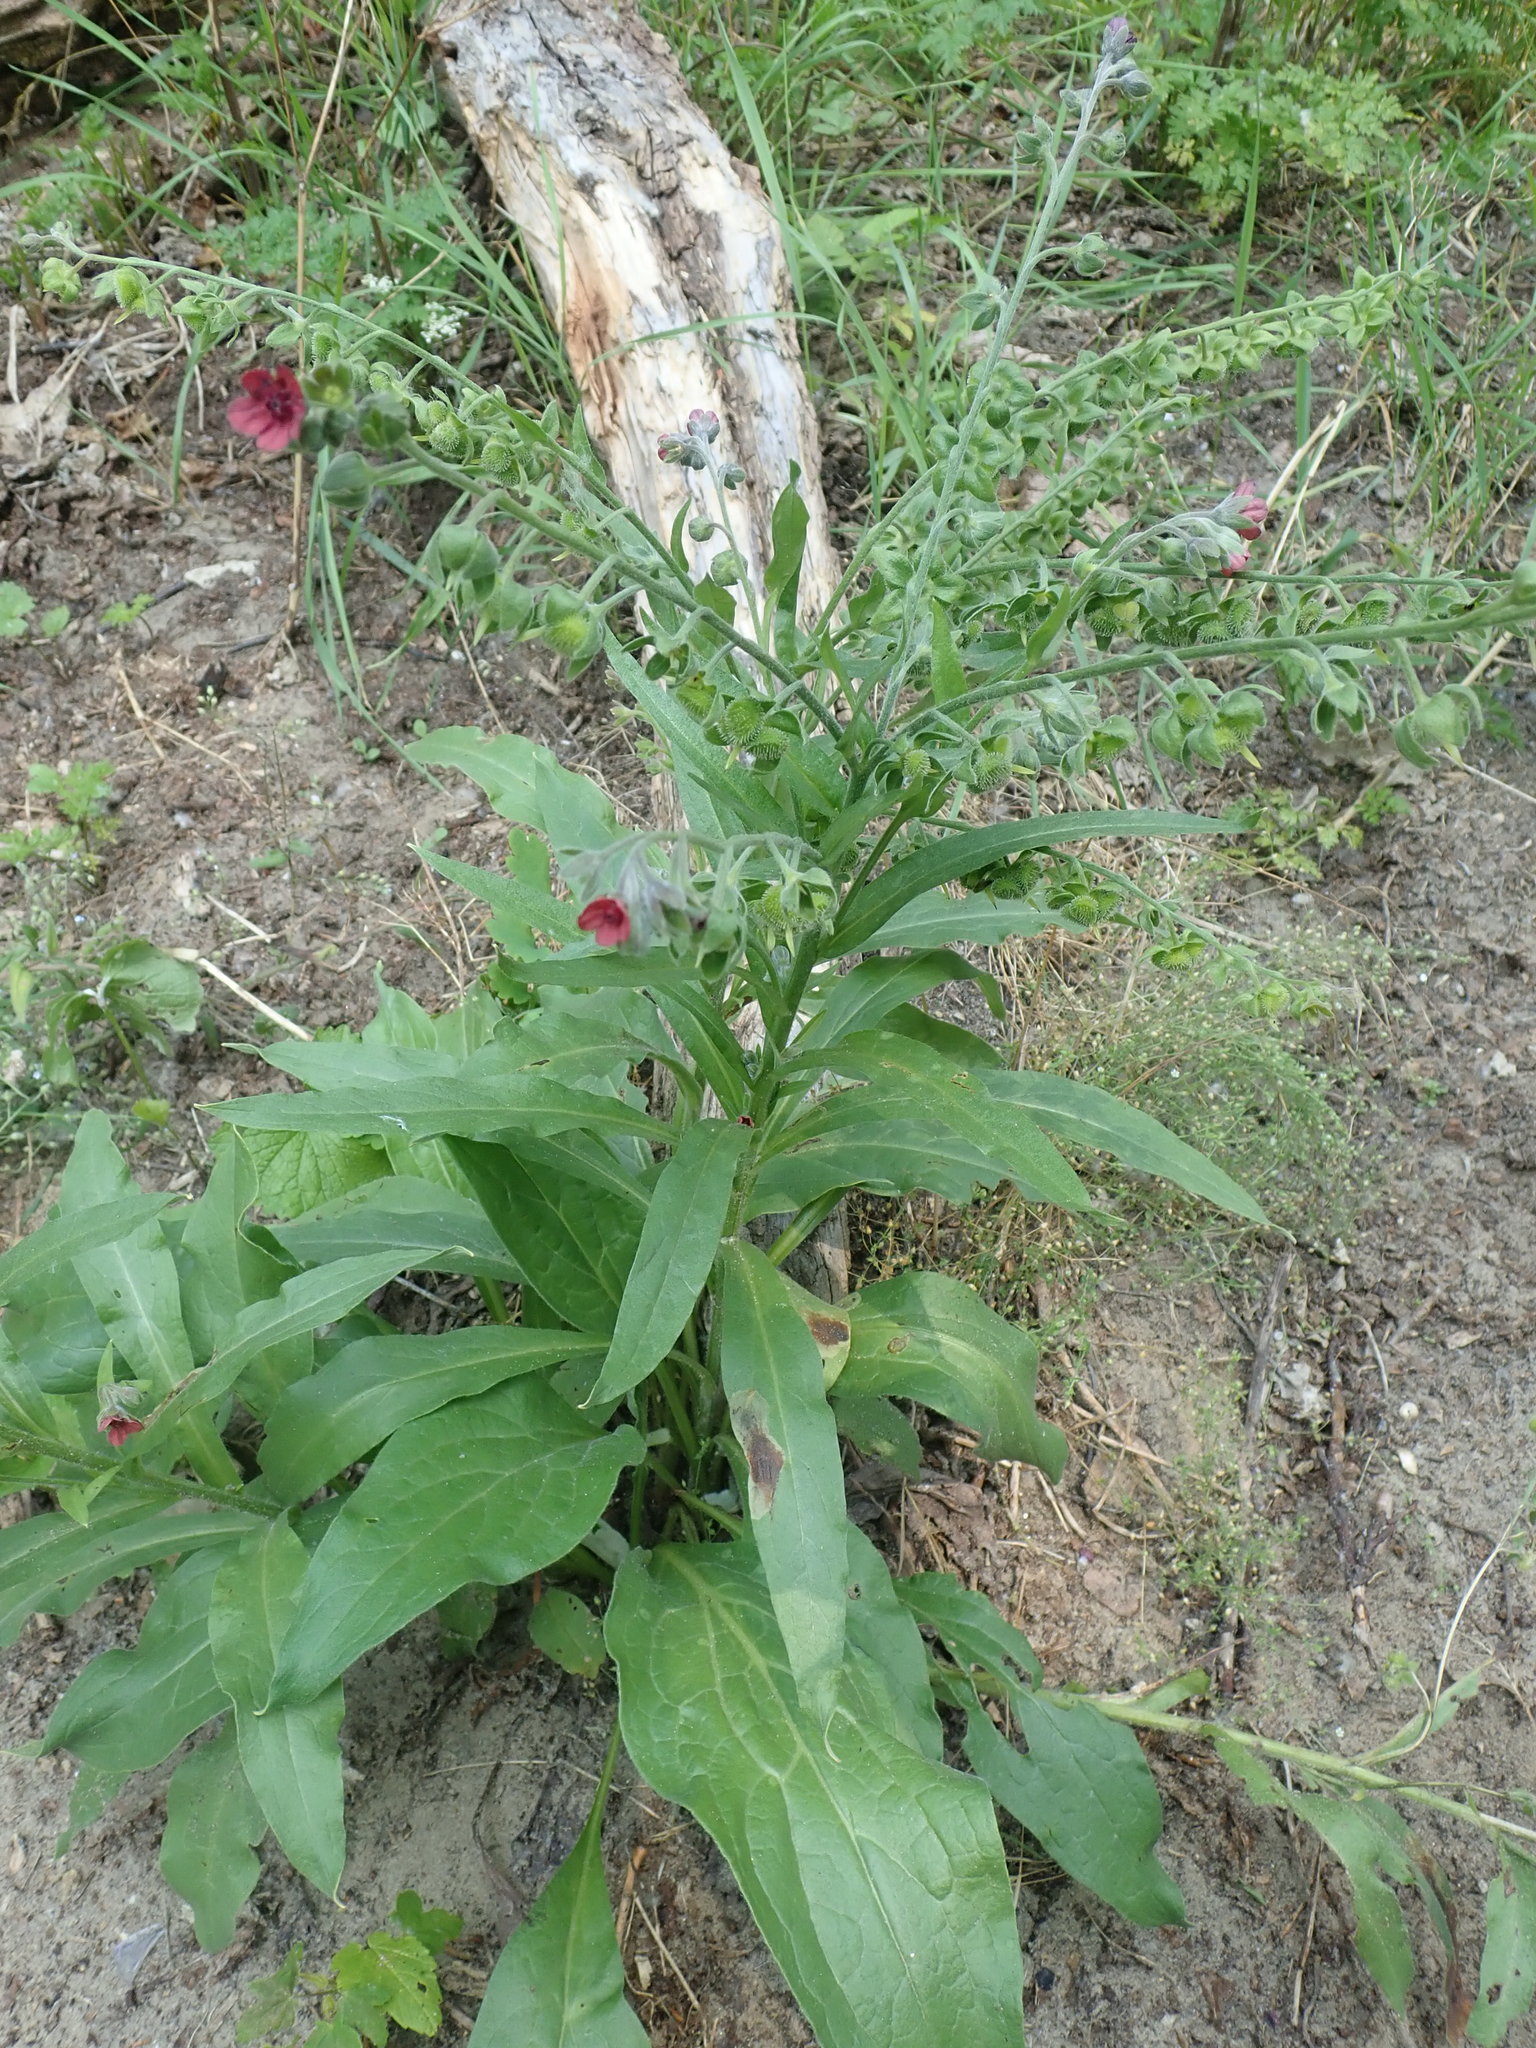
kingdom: Plantae
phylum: Tracheophyta
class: Magnoliopsida
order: Boraginales
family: Boraginaceae
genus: Cynoglossum
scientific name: Cynoglossum officinale
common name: Hound's-tongue
